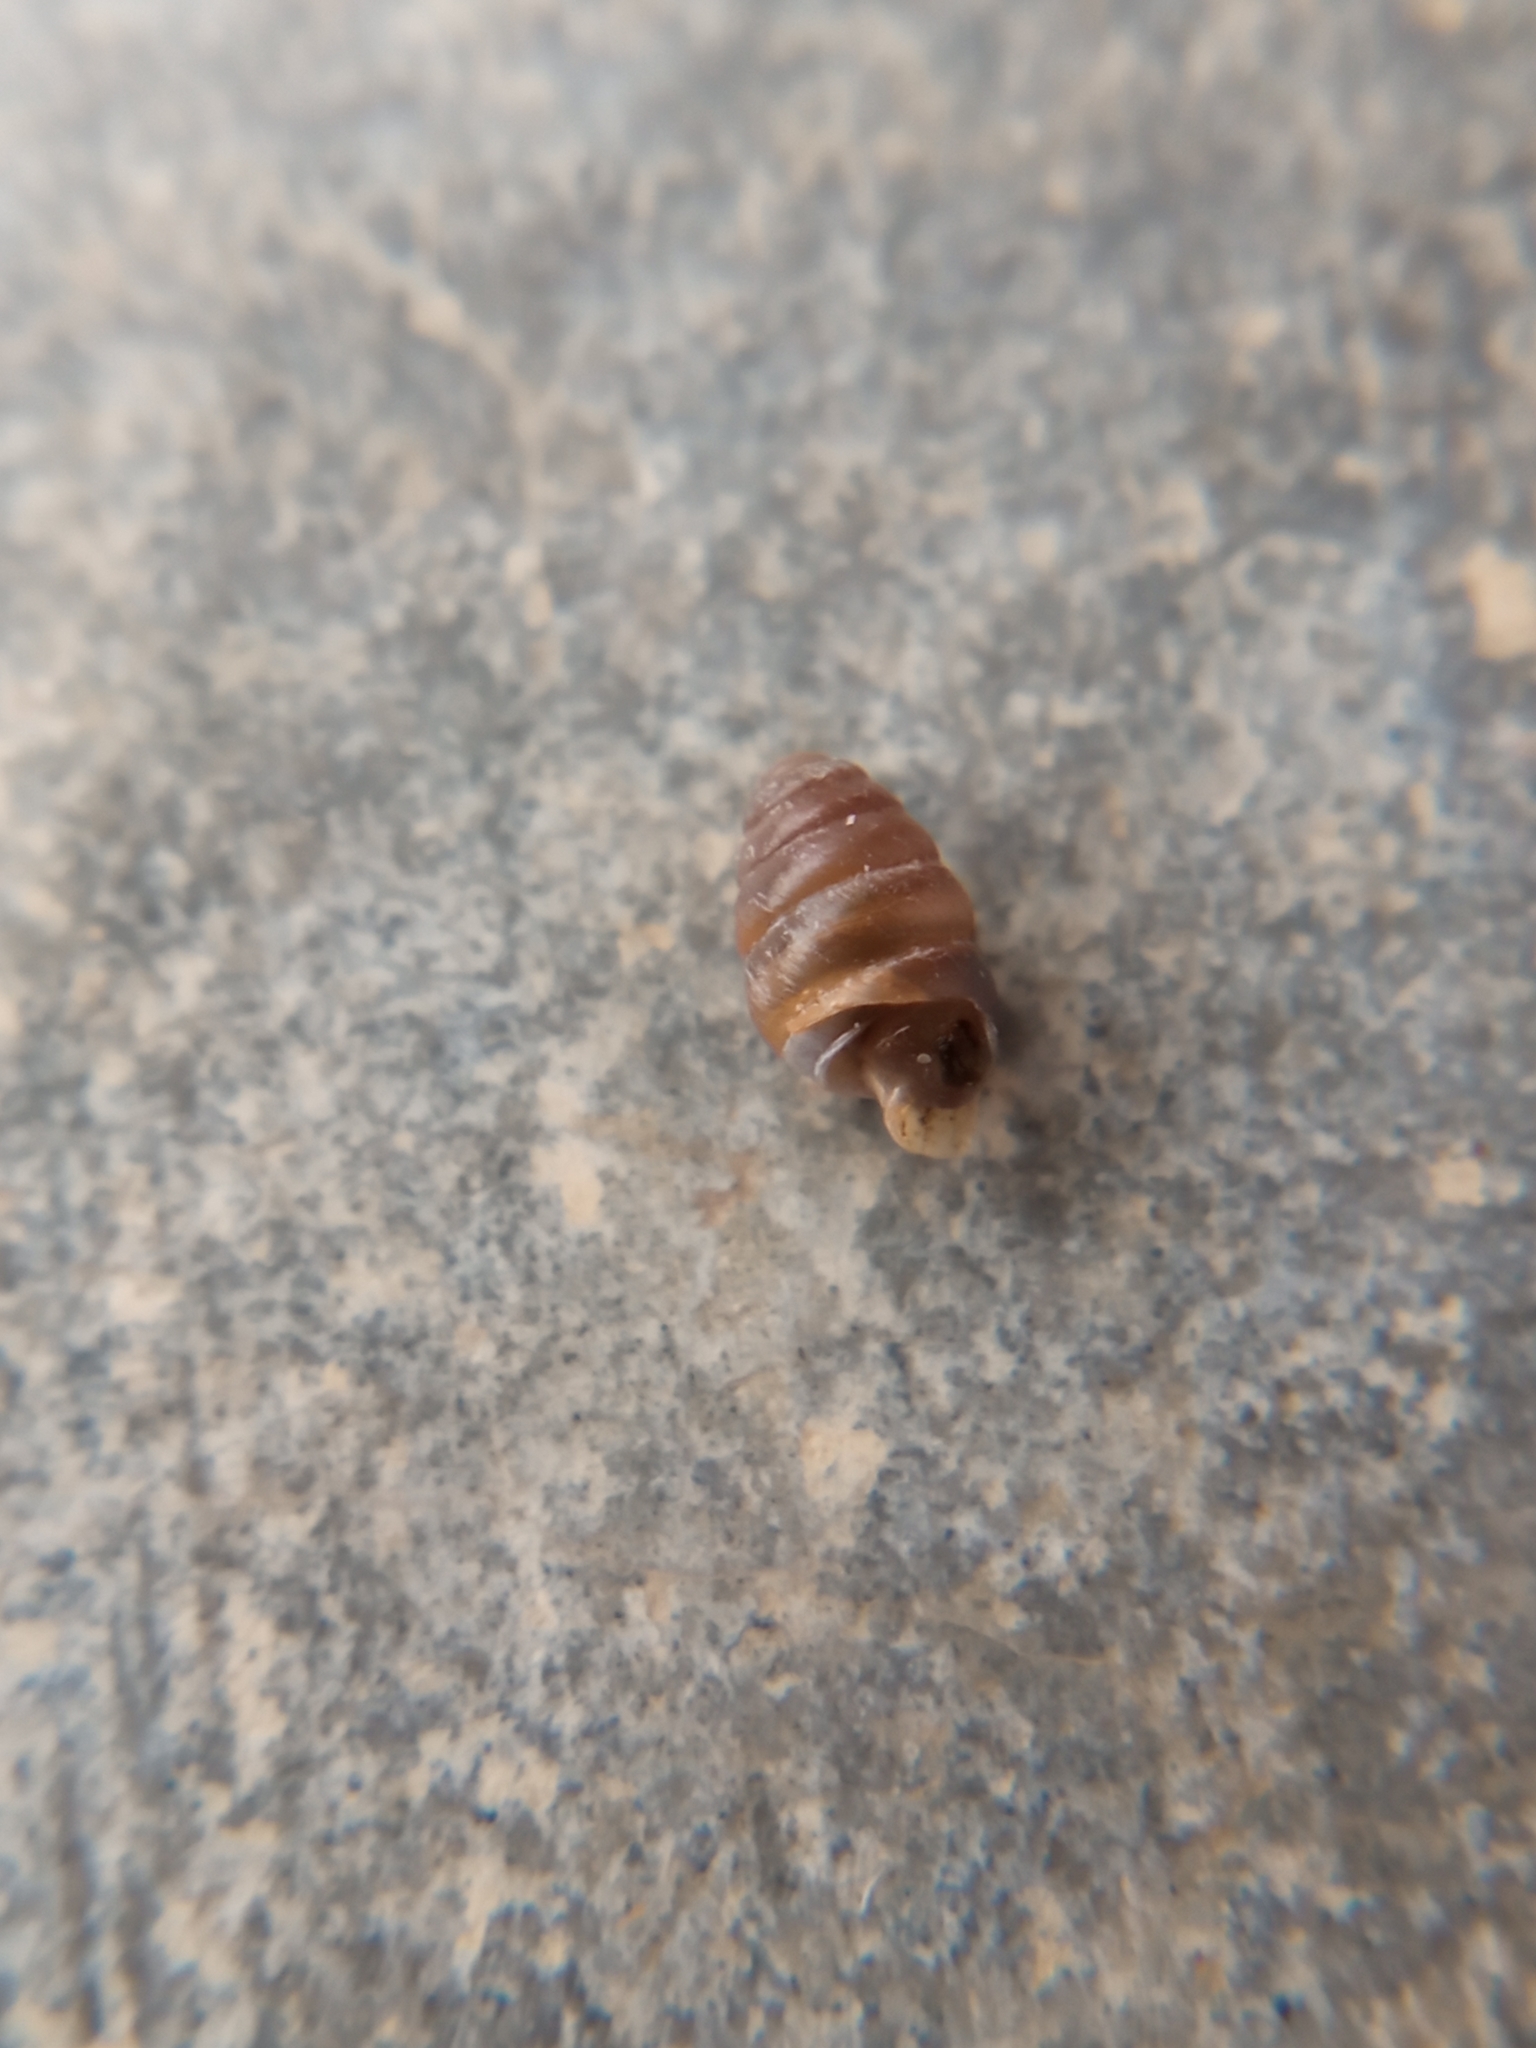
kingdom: Animalia
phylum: Mollusca
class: Gastropoda
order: Stylommatophora
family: Lauriidae
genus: Lauria
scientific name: Lauria cylindracea
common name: Common chrysalis snail
